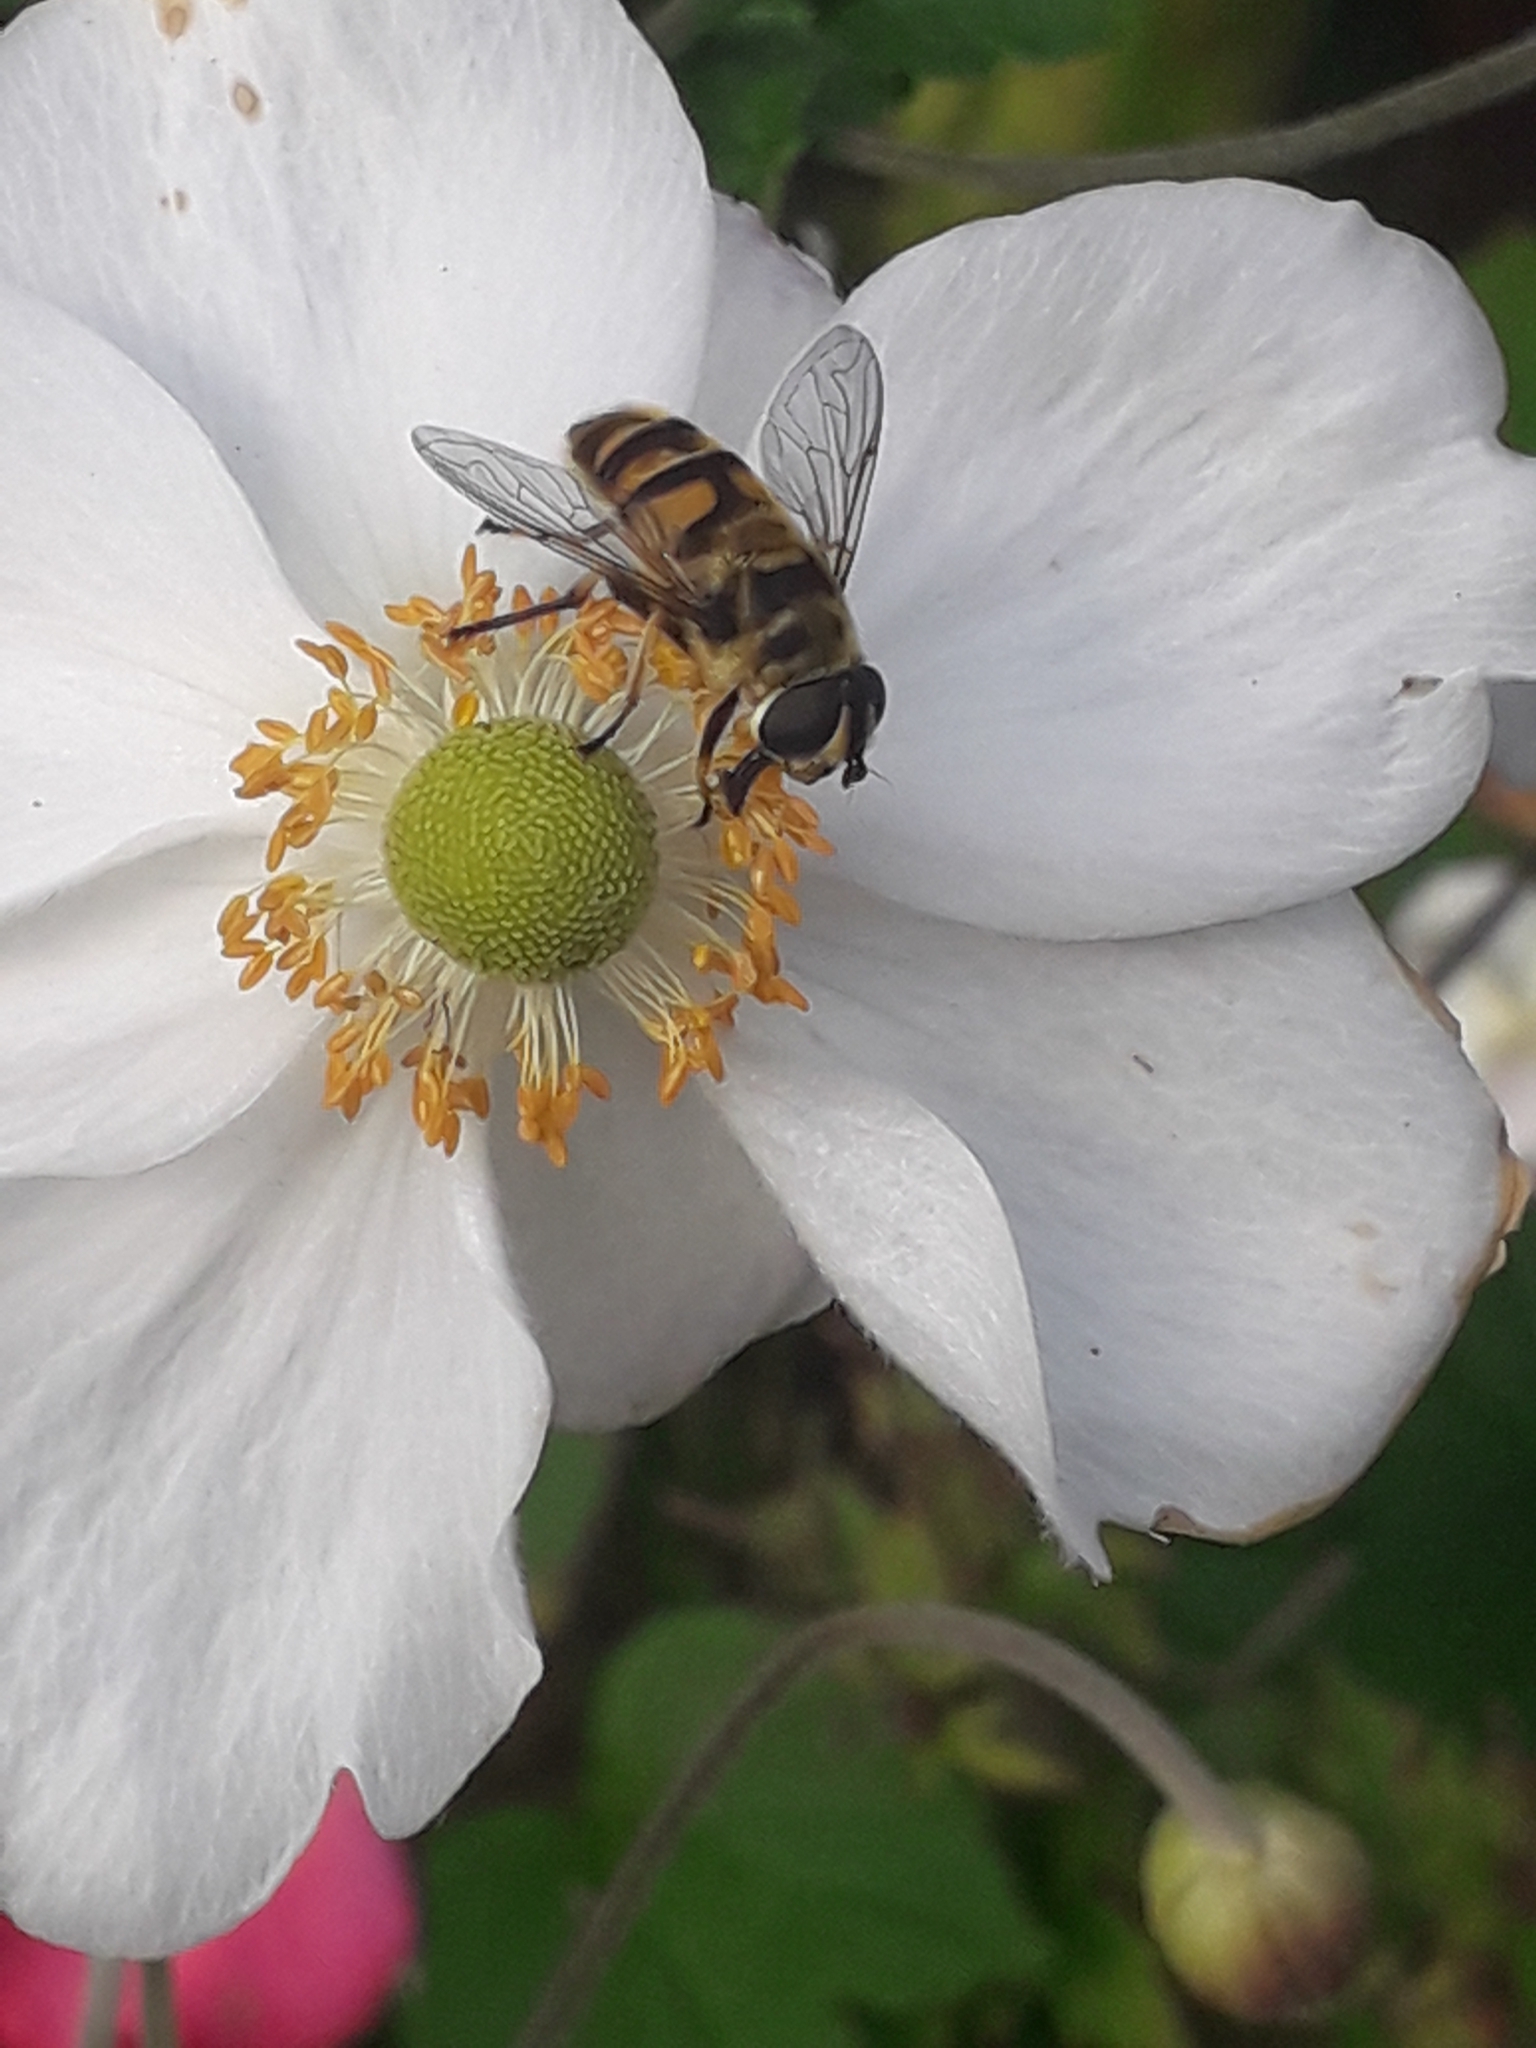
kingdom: Animalia
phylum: Arthropoda
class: Insecta
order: Diptera
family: Syrphidae
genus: Myathropa
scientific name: Myathropa florea
